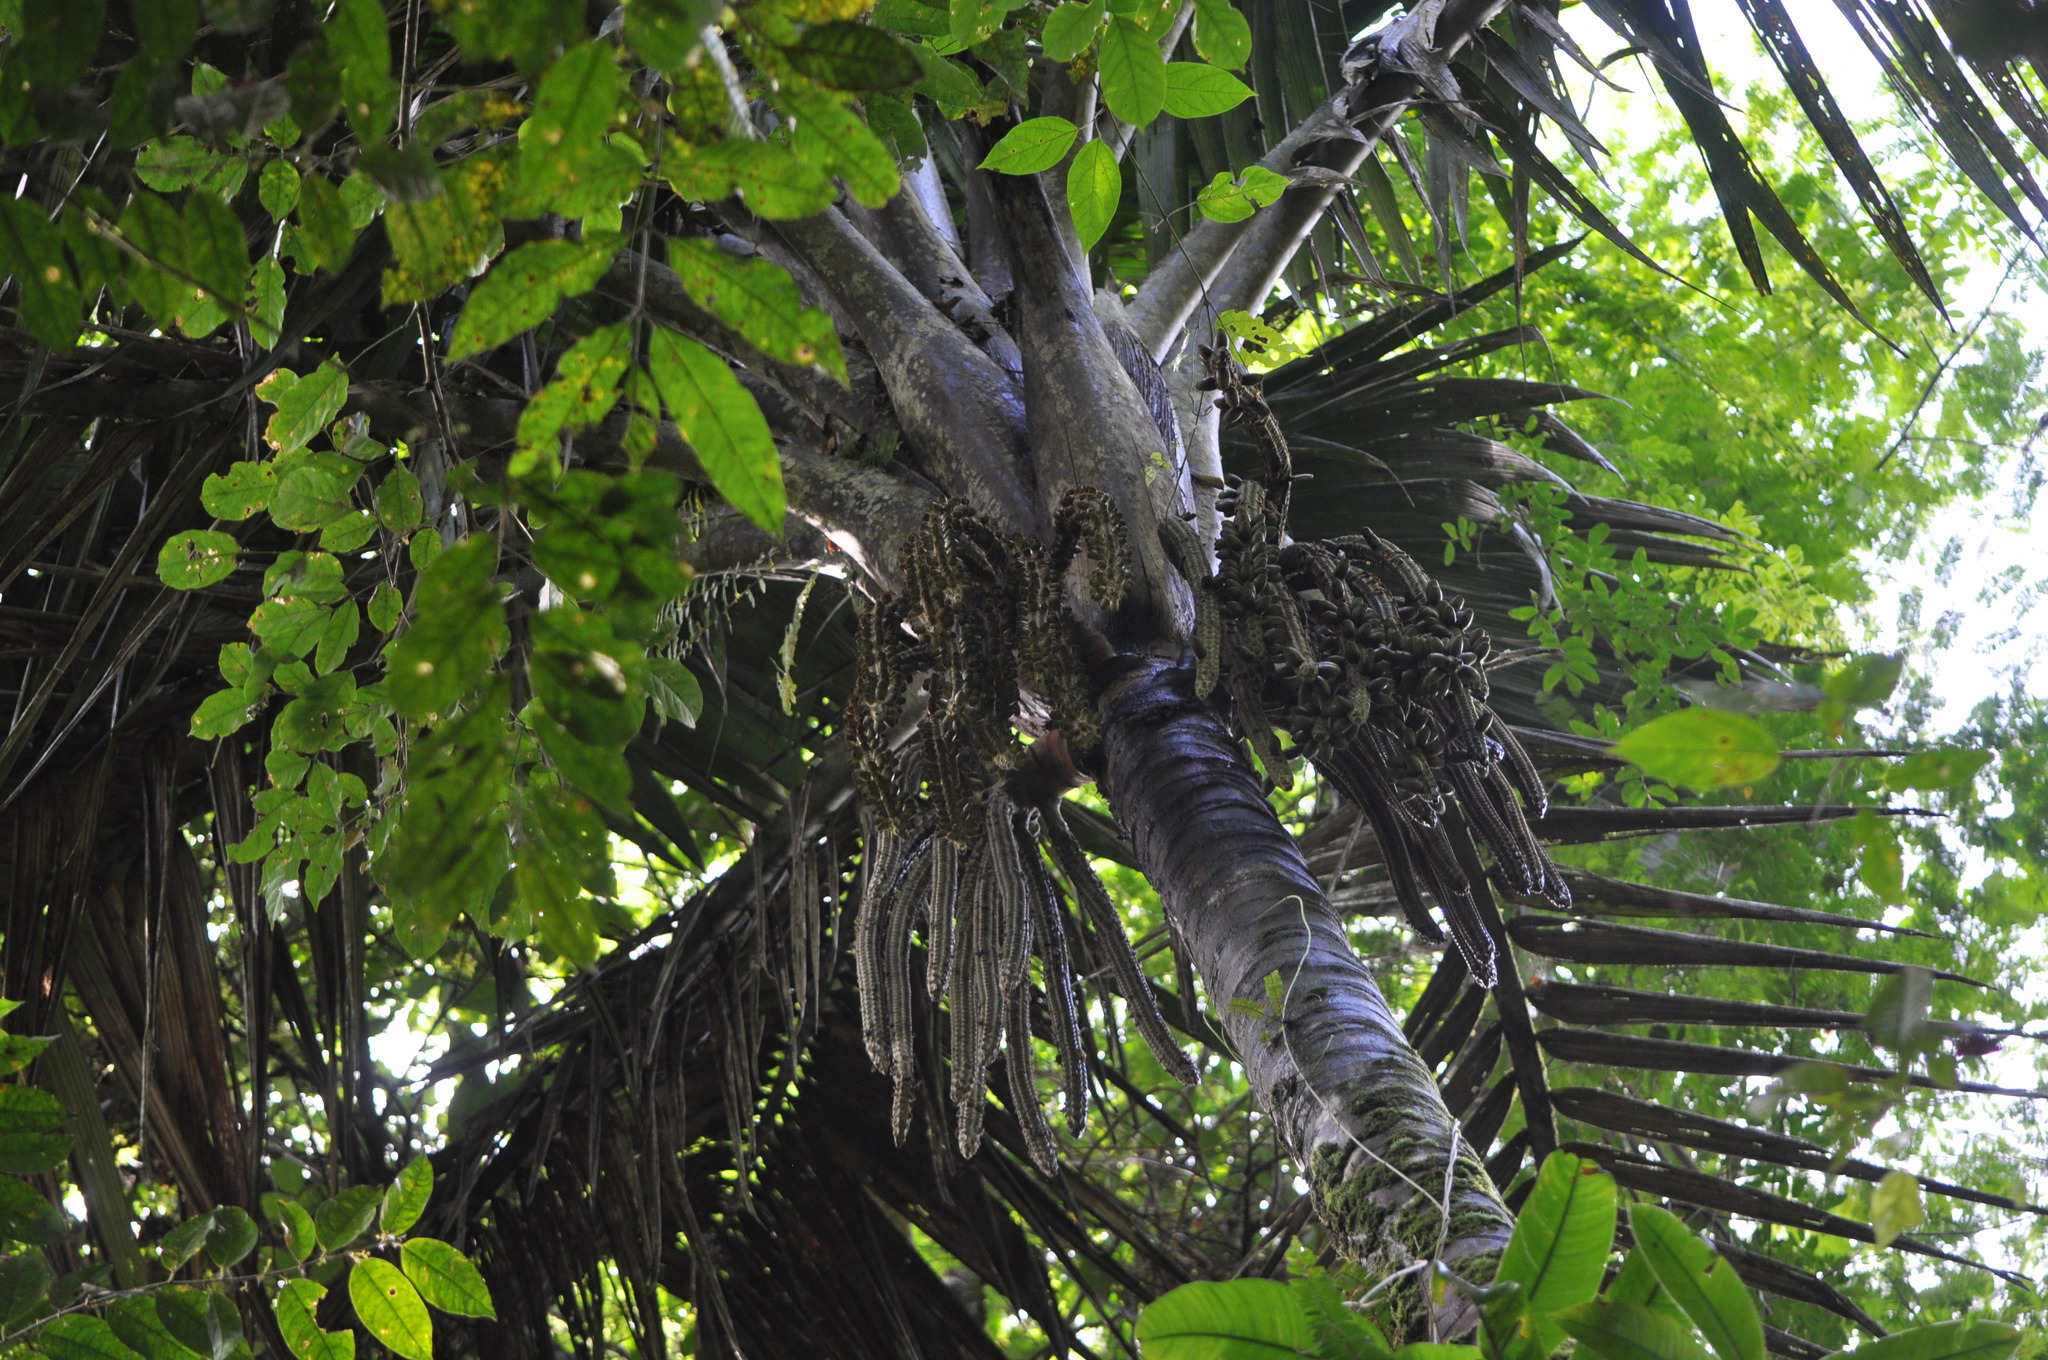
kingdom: Plantae
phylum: Tracheophyta
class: Liliopsida
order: Arecales
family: Arecaceae
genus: Welfia
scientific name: Welfia regia
